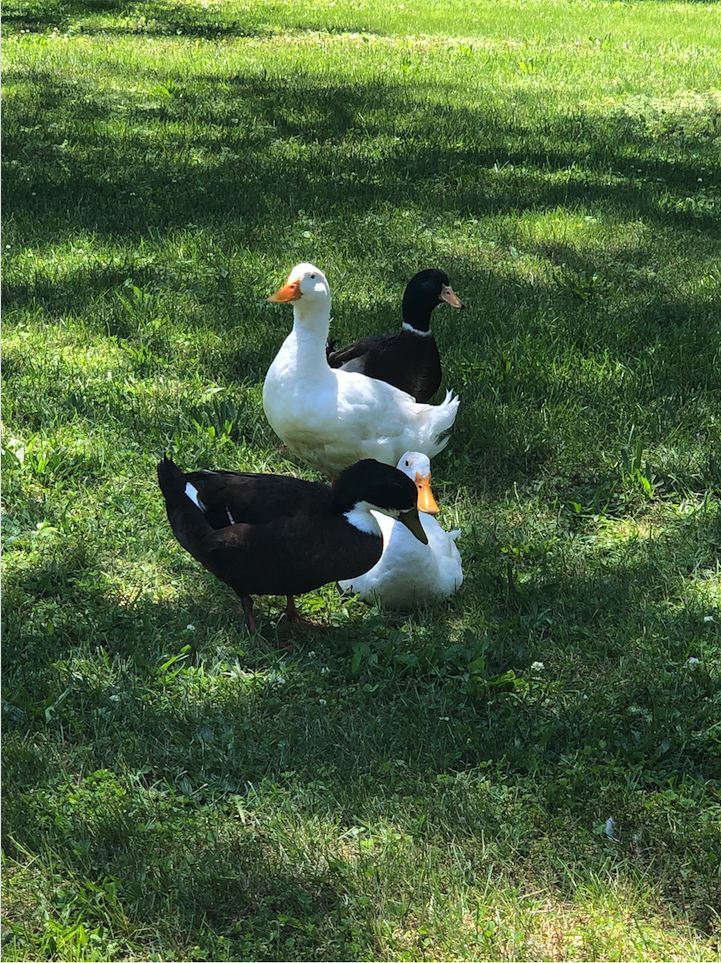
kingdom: Animalia
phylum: Chordata
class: Aves
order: Anseriformes
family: Anatidae
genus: Anas
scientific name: Anas platyrhynchos
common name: Mallard
